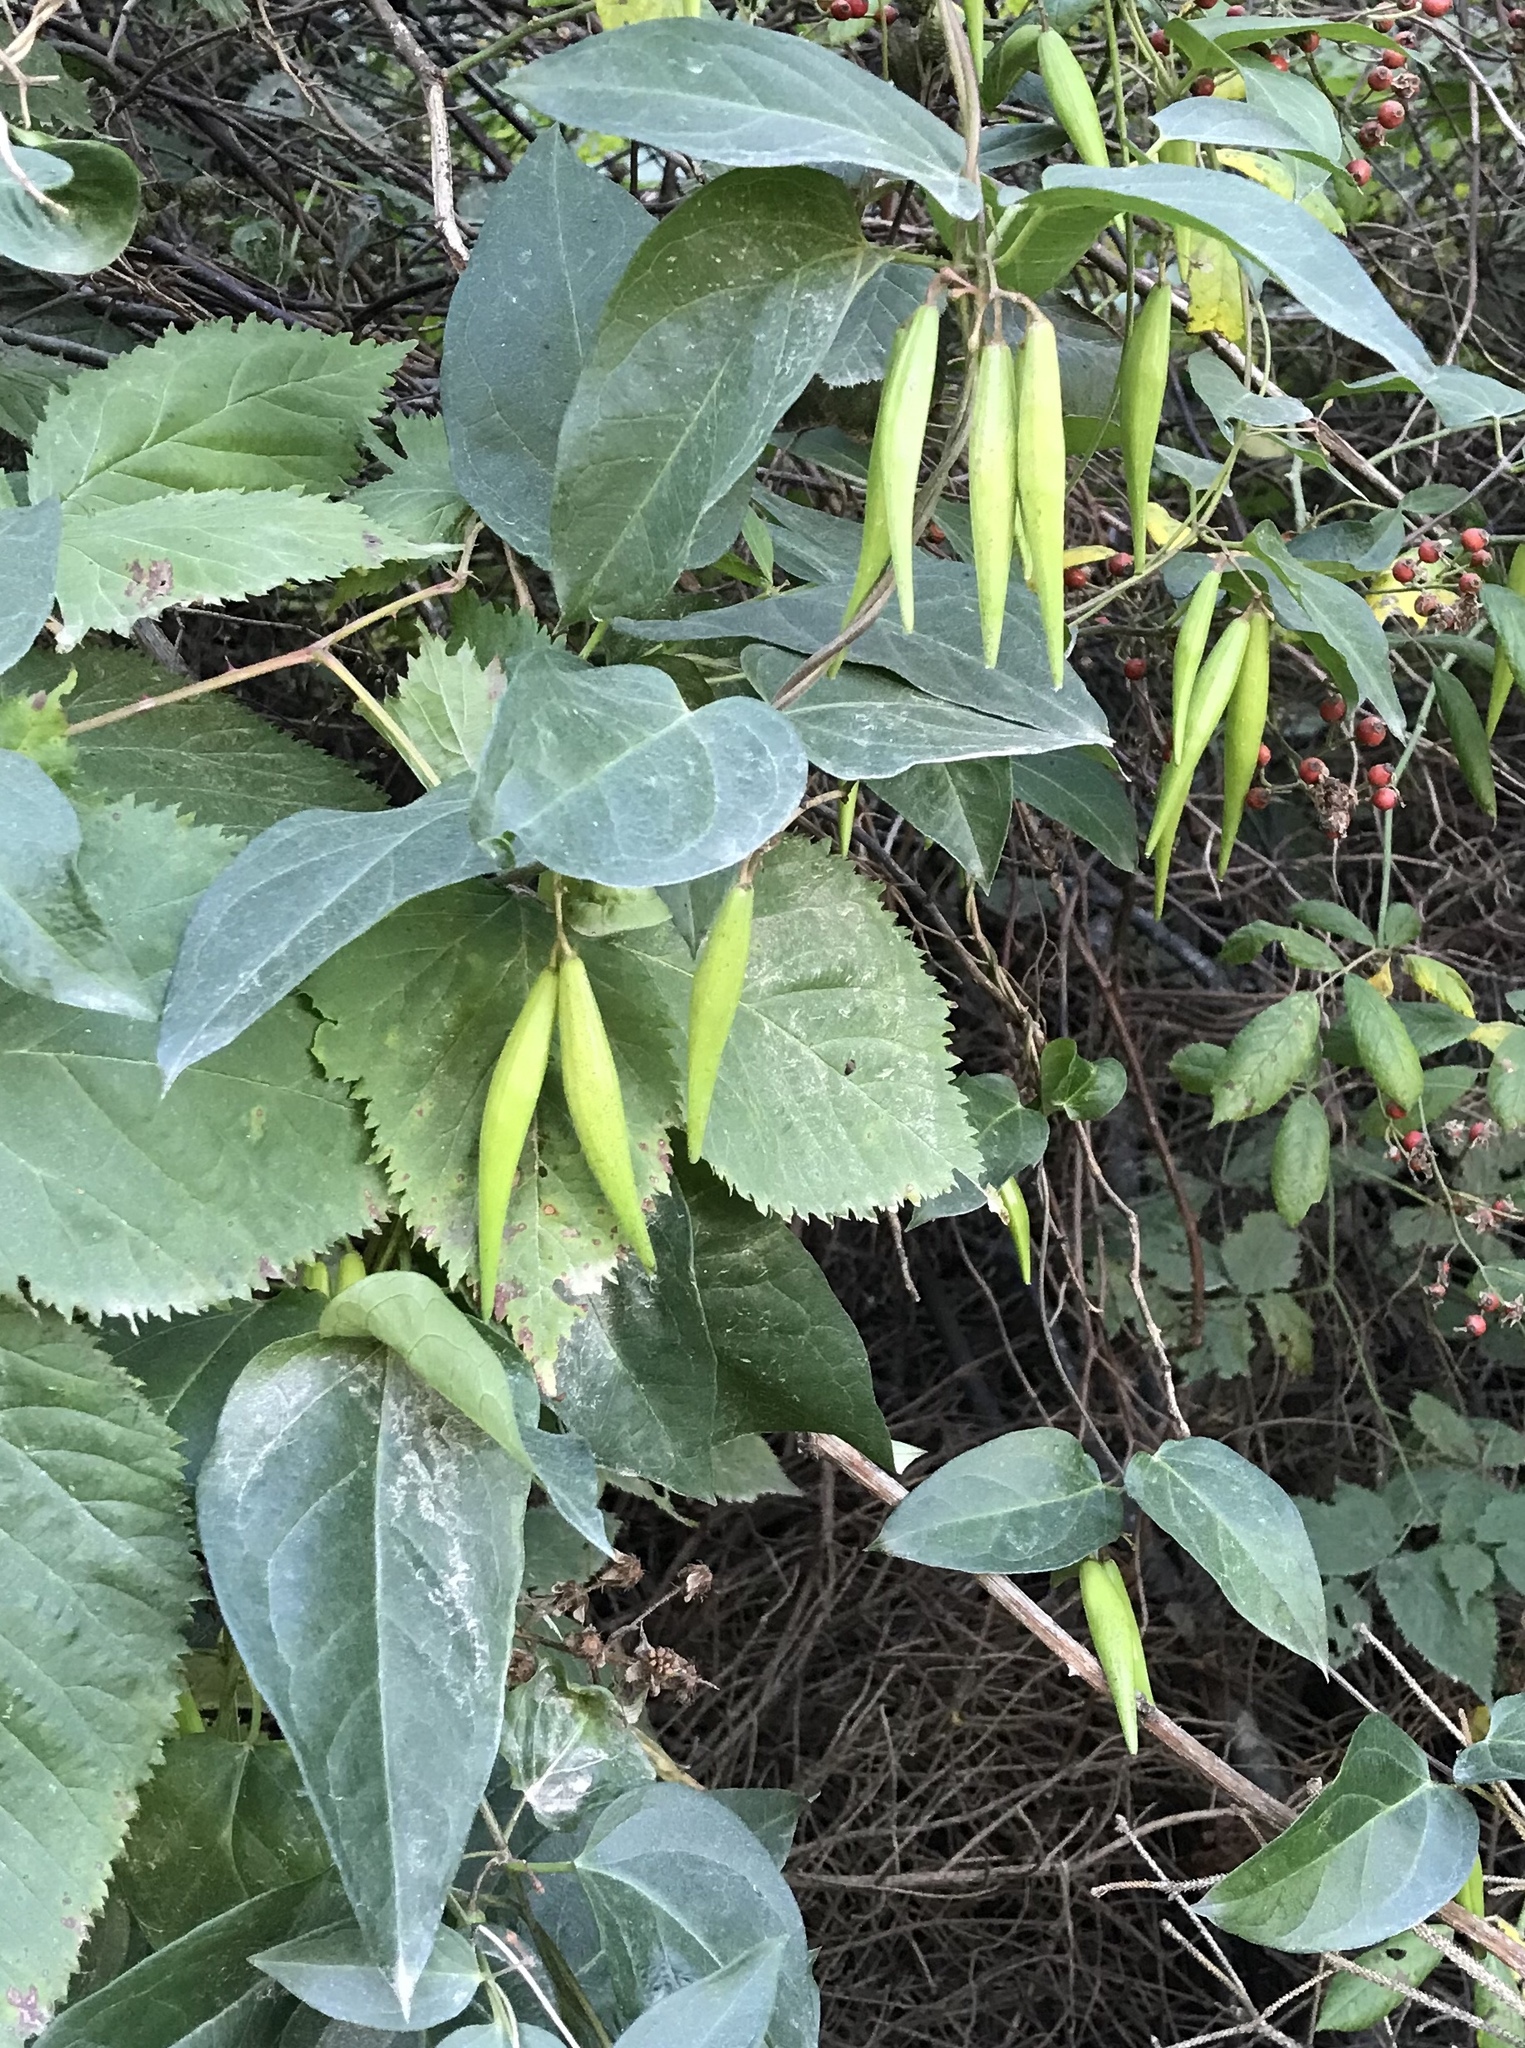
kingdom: Plantae
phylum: Tracheophyta
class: Magnoliopsida
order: Gentianales
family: Apocynaceae
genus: Vincetoxicum
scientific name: Vincetoxicum nigrum
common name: Black swallow-wort
